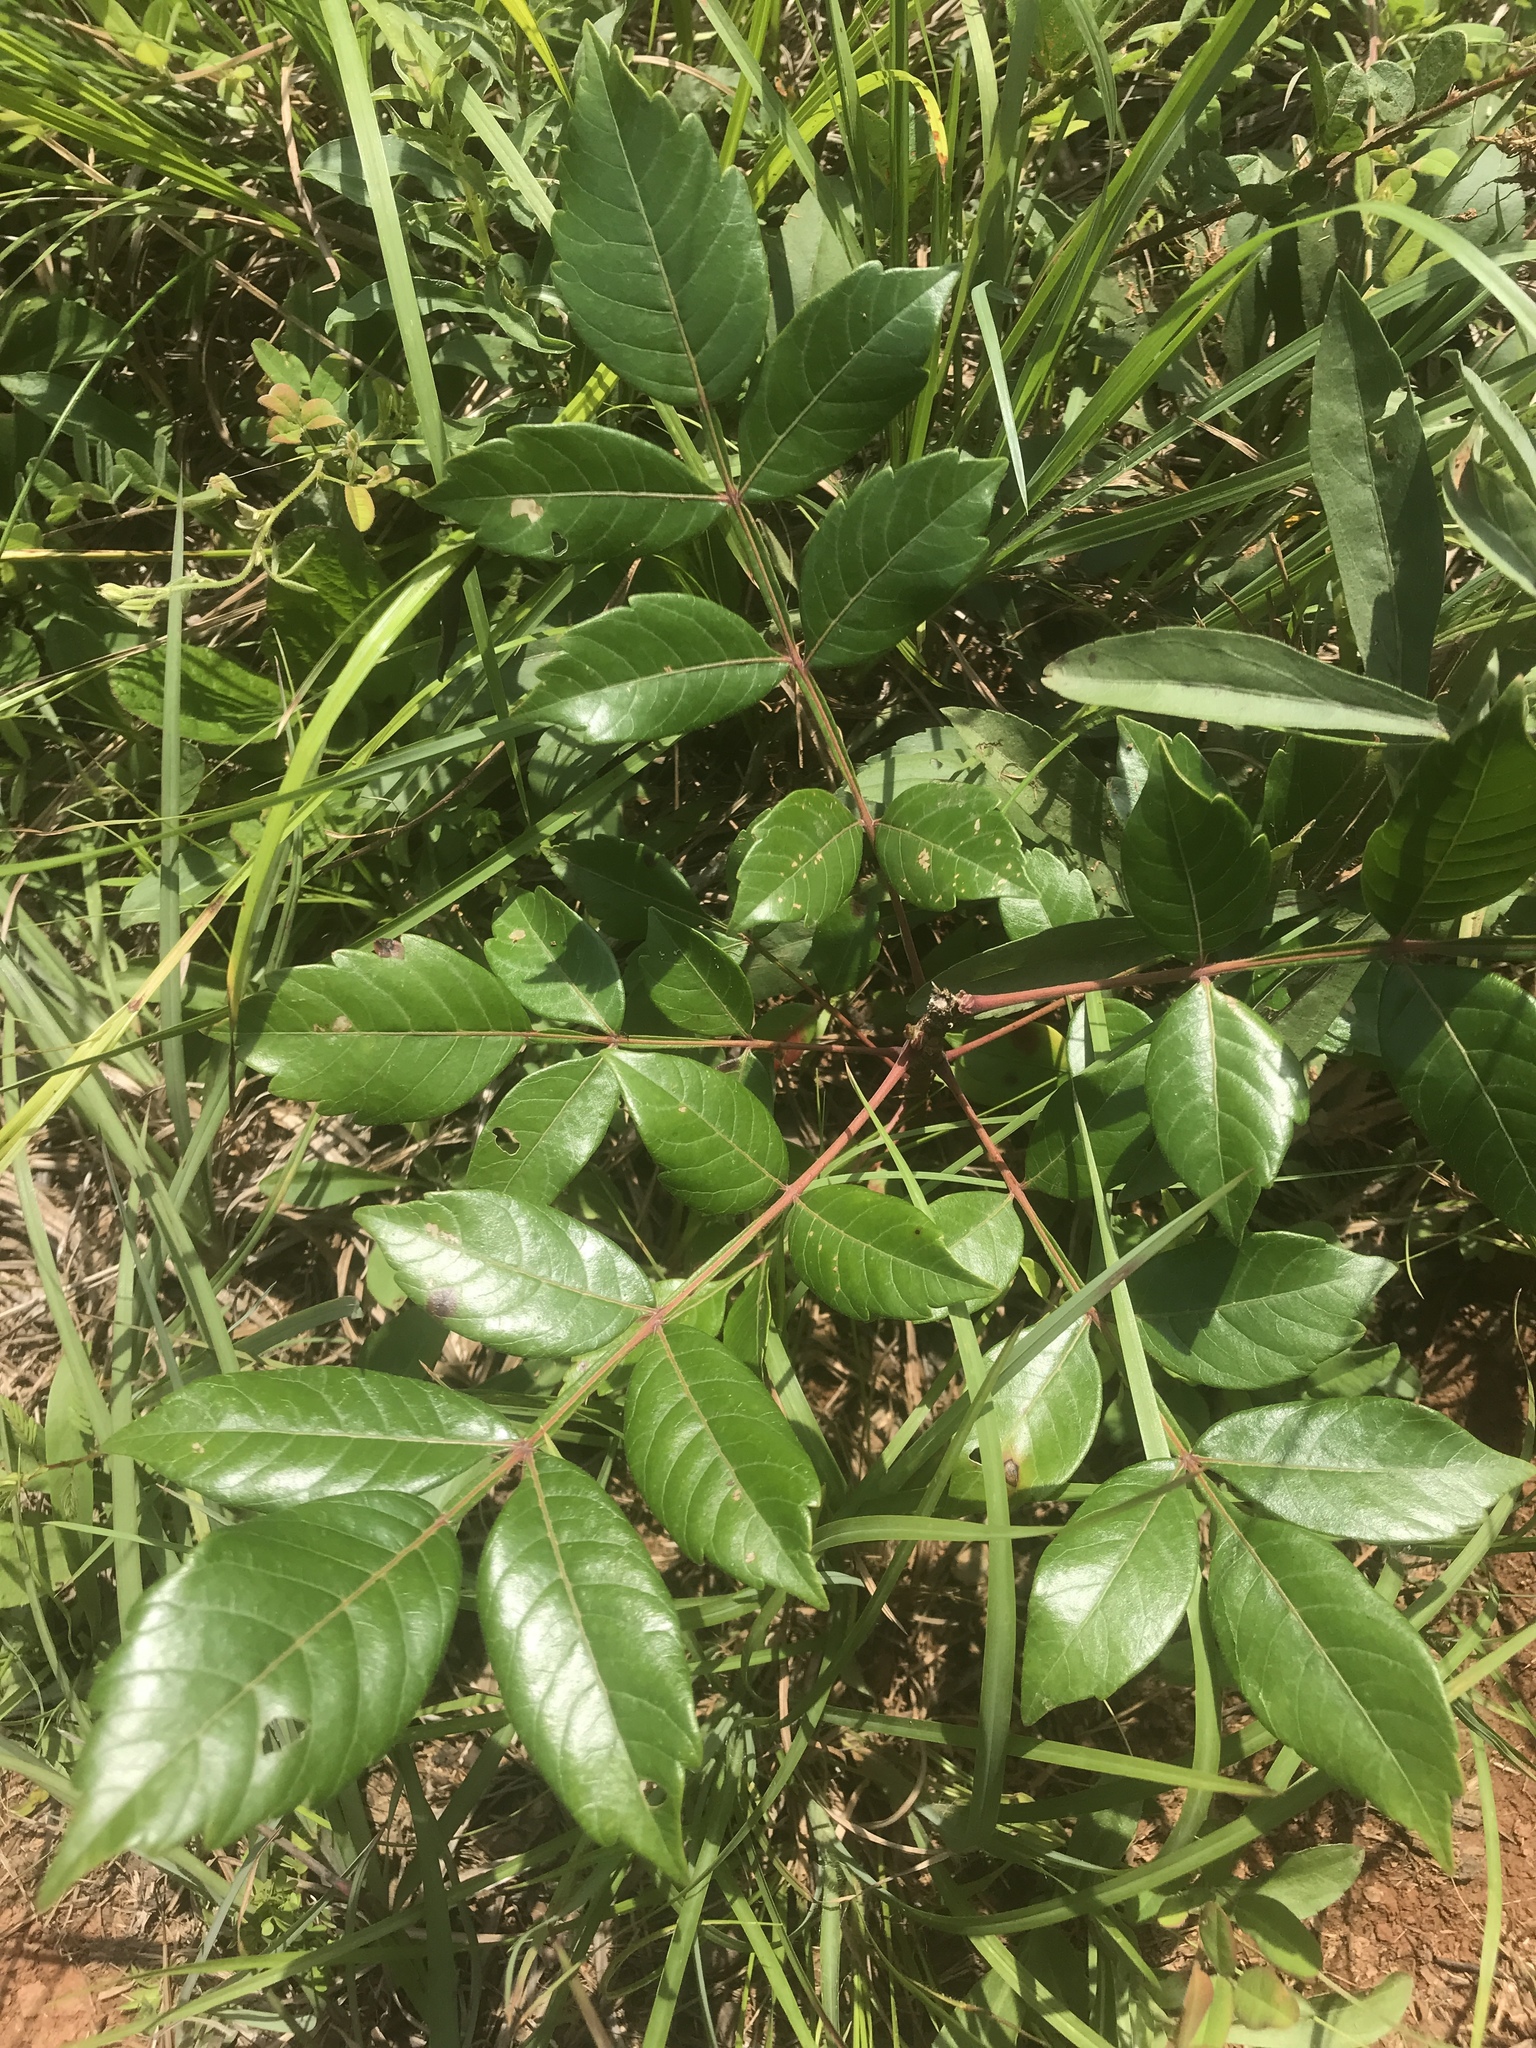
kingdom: Plantae
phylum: Tracheophyta
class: Magnoliopsida
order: Sapindales
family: Anacardiaceae
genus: Rhus
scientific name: Rhus copallina
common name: Shining sumac
